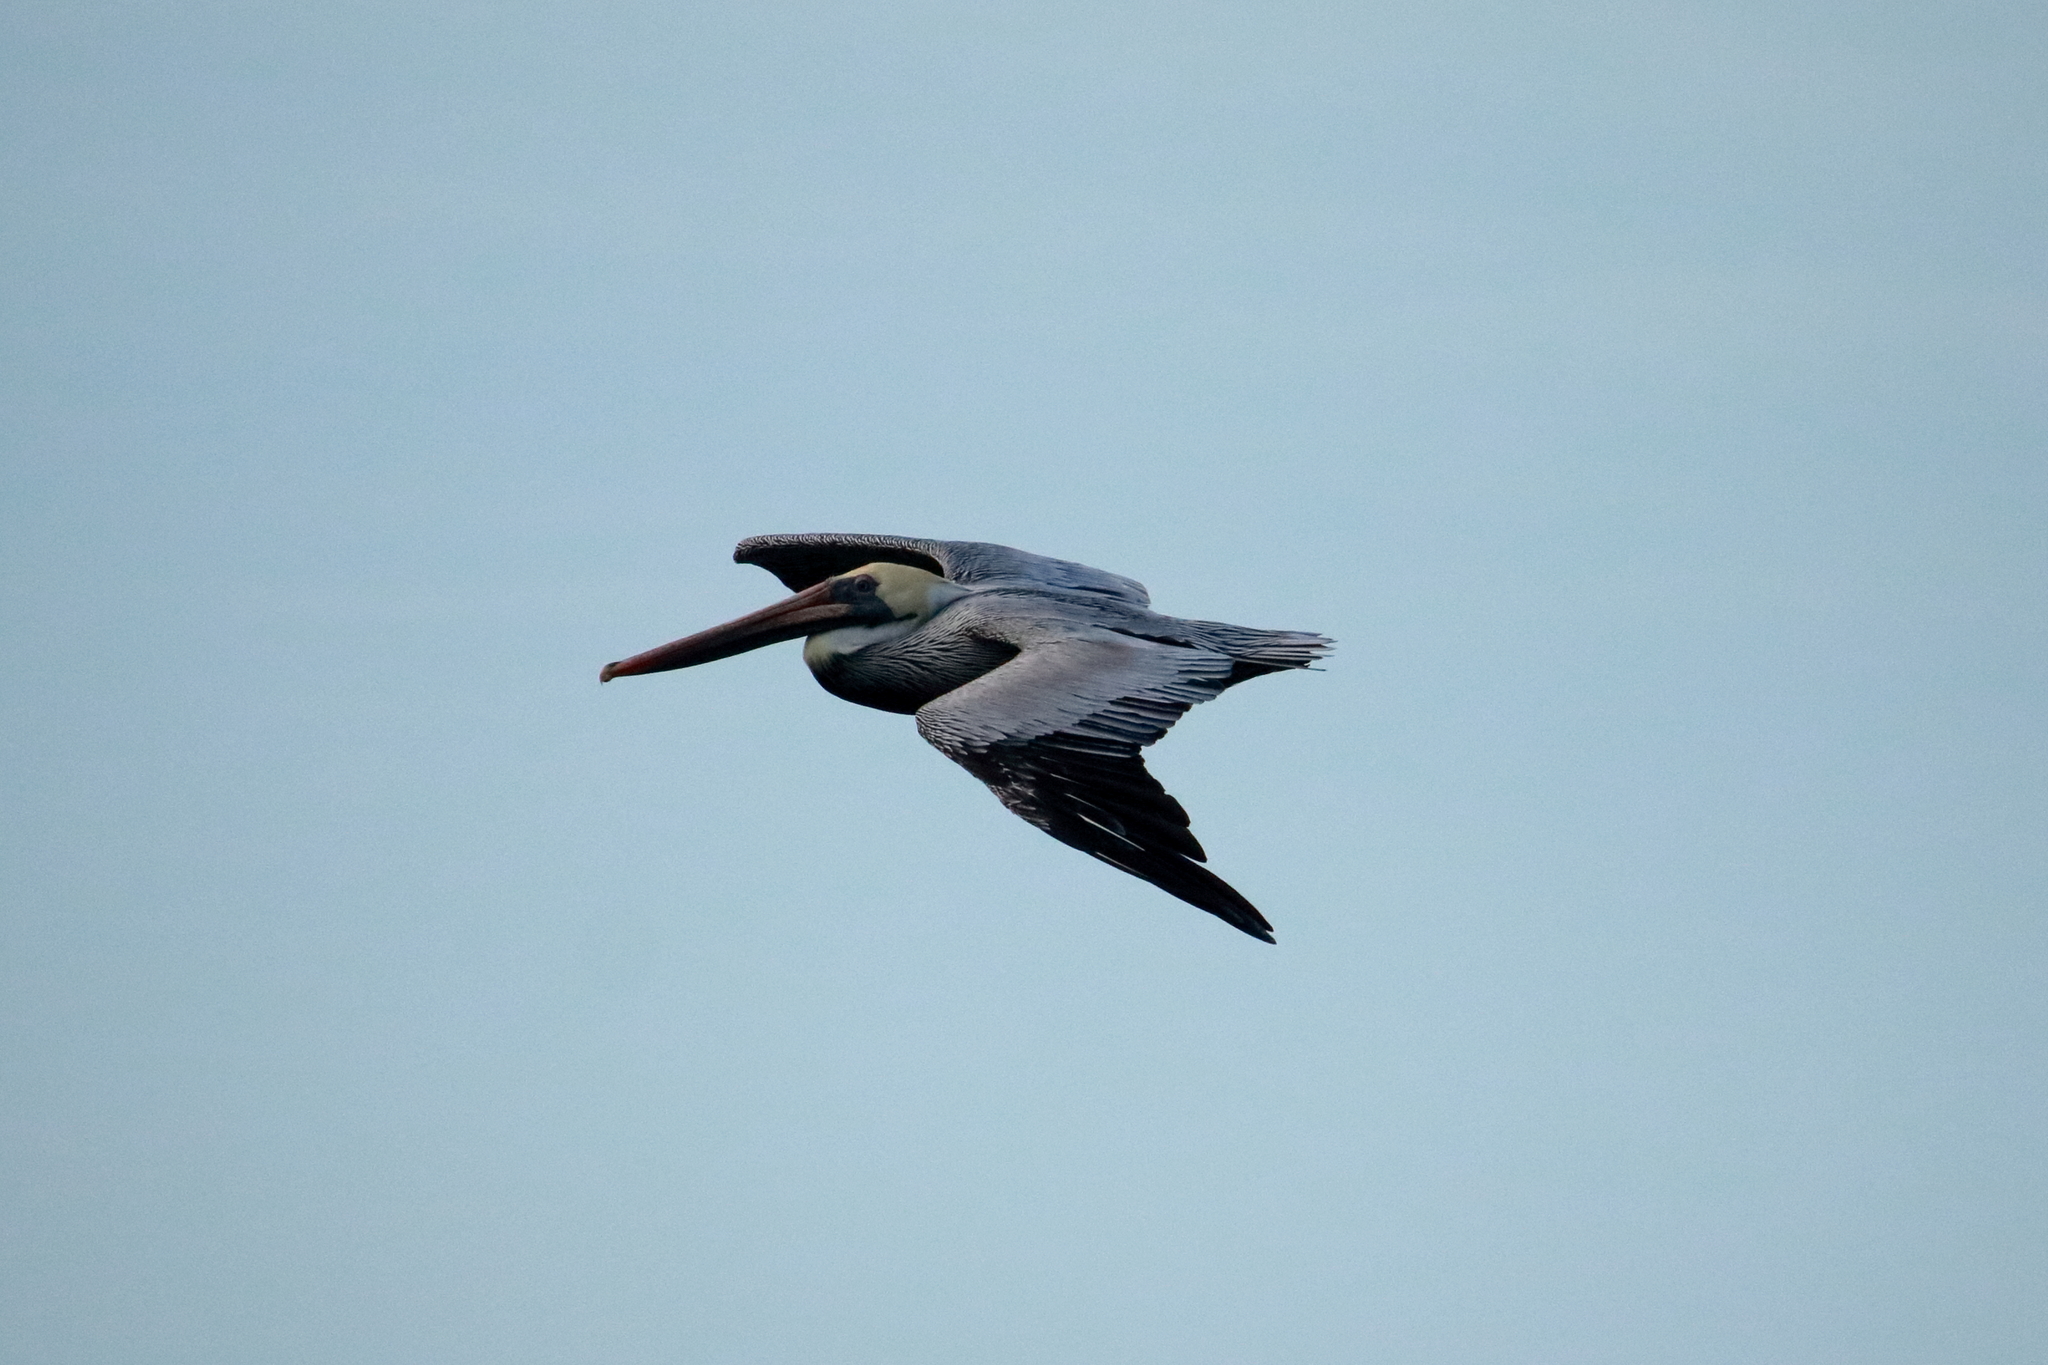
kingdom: Animalia
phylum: Chordata
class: Aves
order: Pelecaniformes
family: Pelecanidae
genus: Pelecanus
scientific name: Pelecanus occidentalis
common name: Brown pelican
